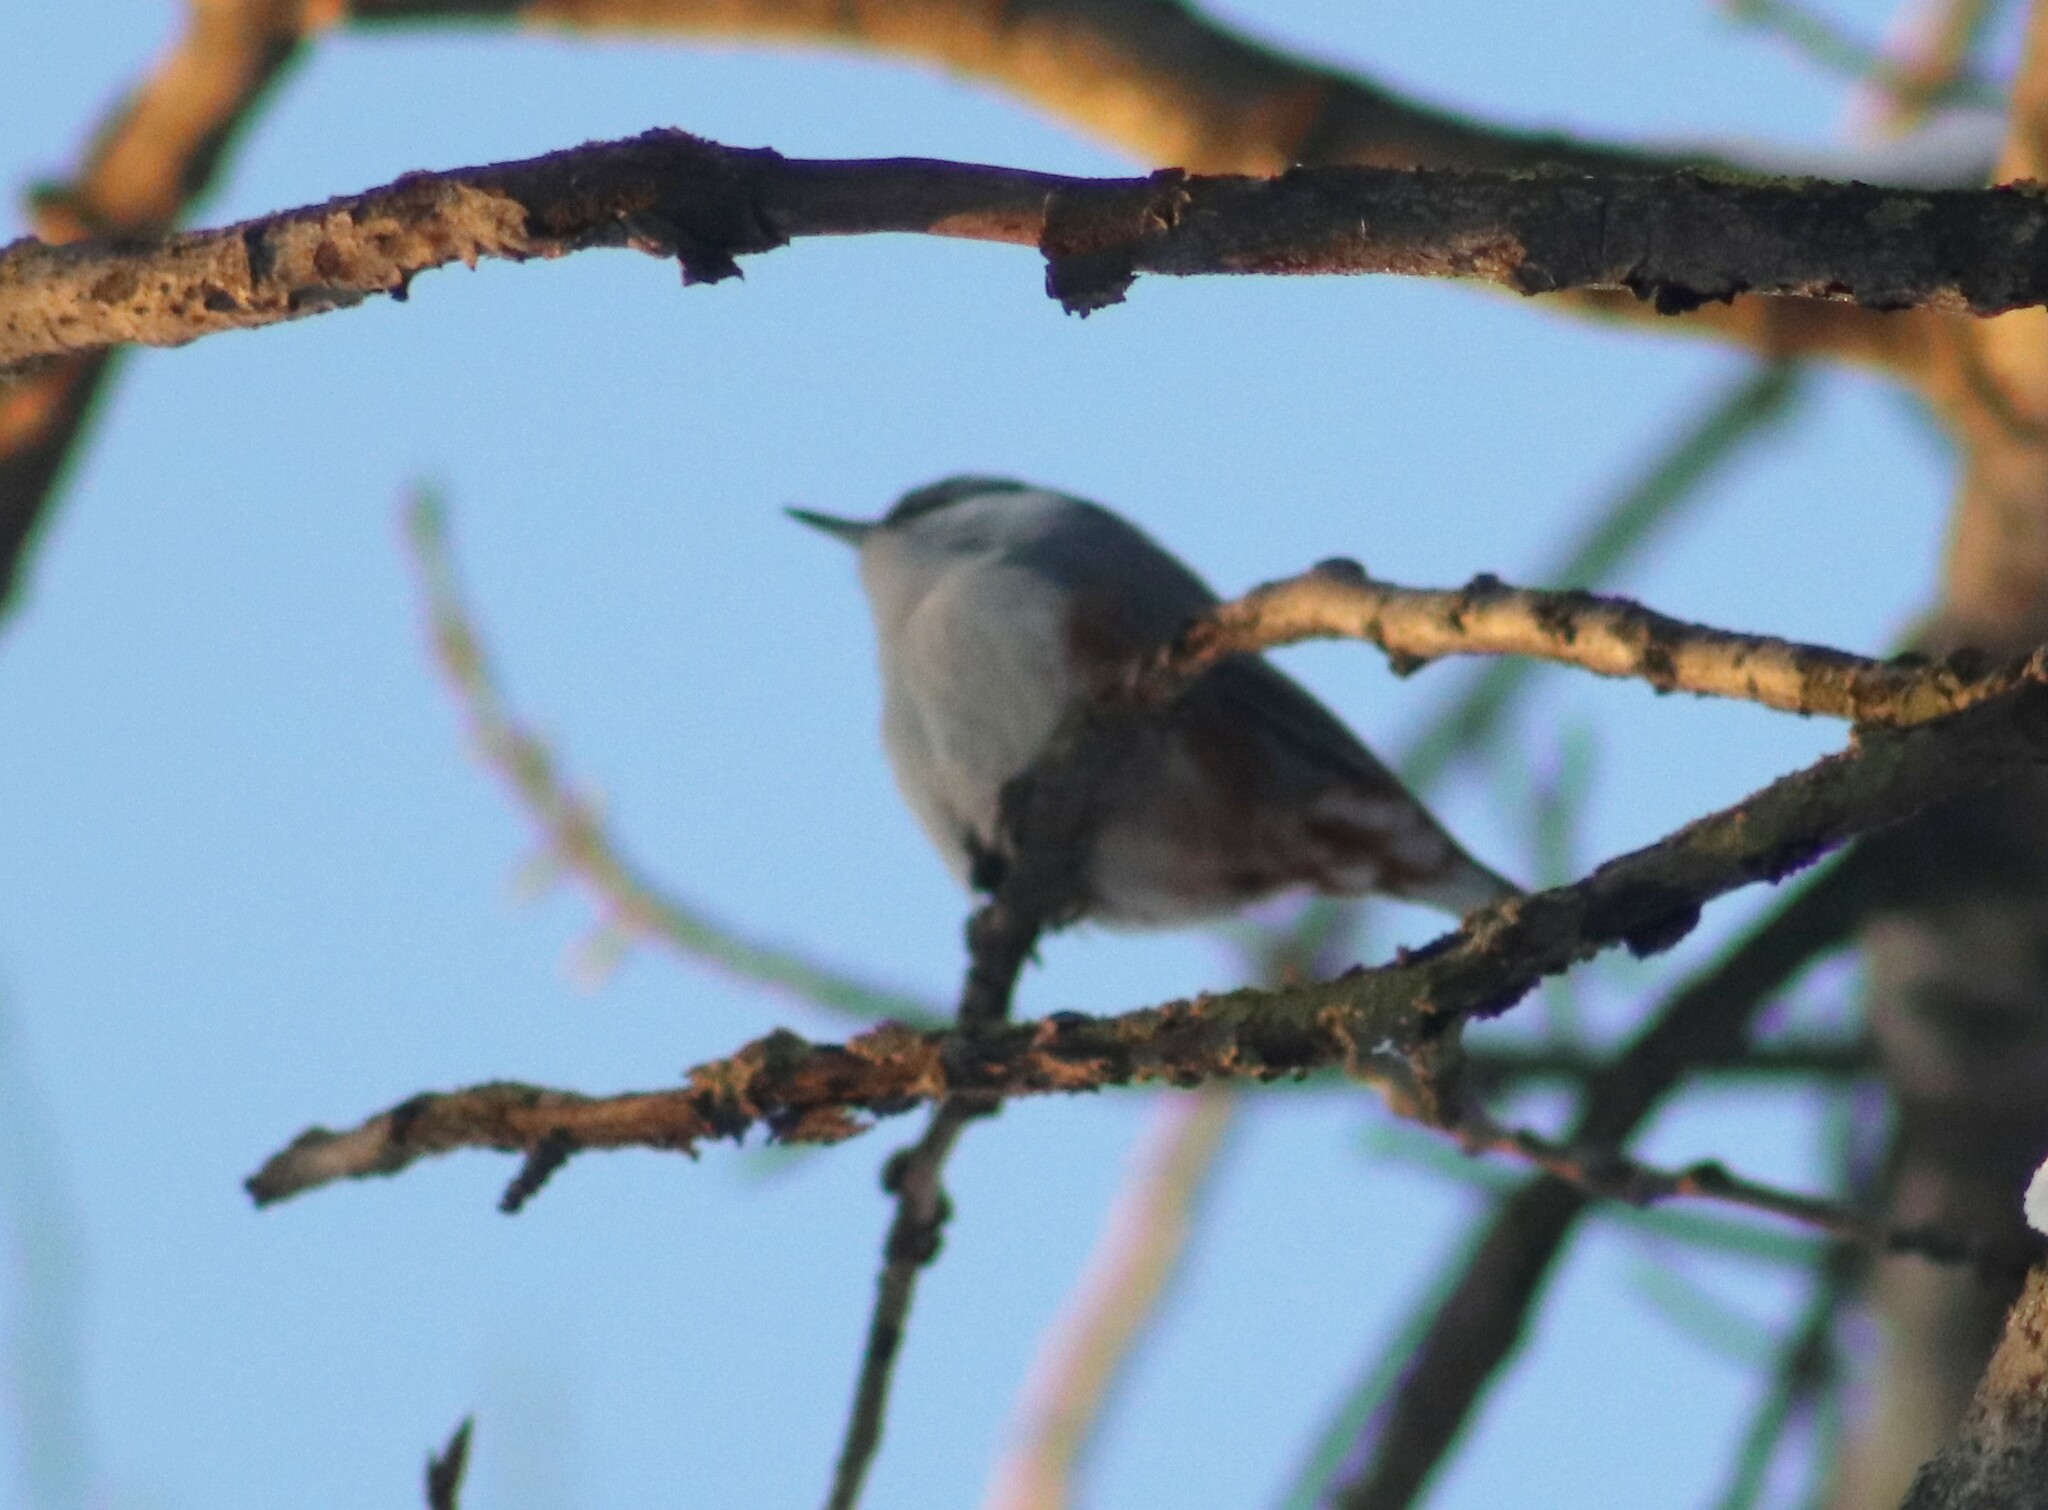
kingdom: Animalia
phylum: Chordata
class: Aves
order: Passeriformes
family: Sittidae
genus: Sitta
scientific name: Sitta europaea
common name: Eurasian nuthatch
